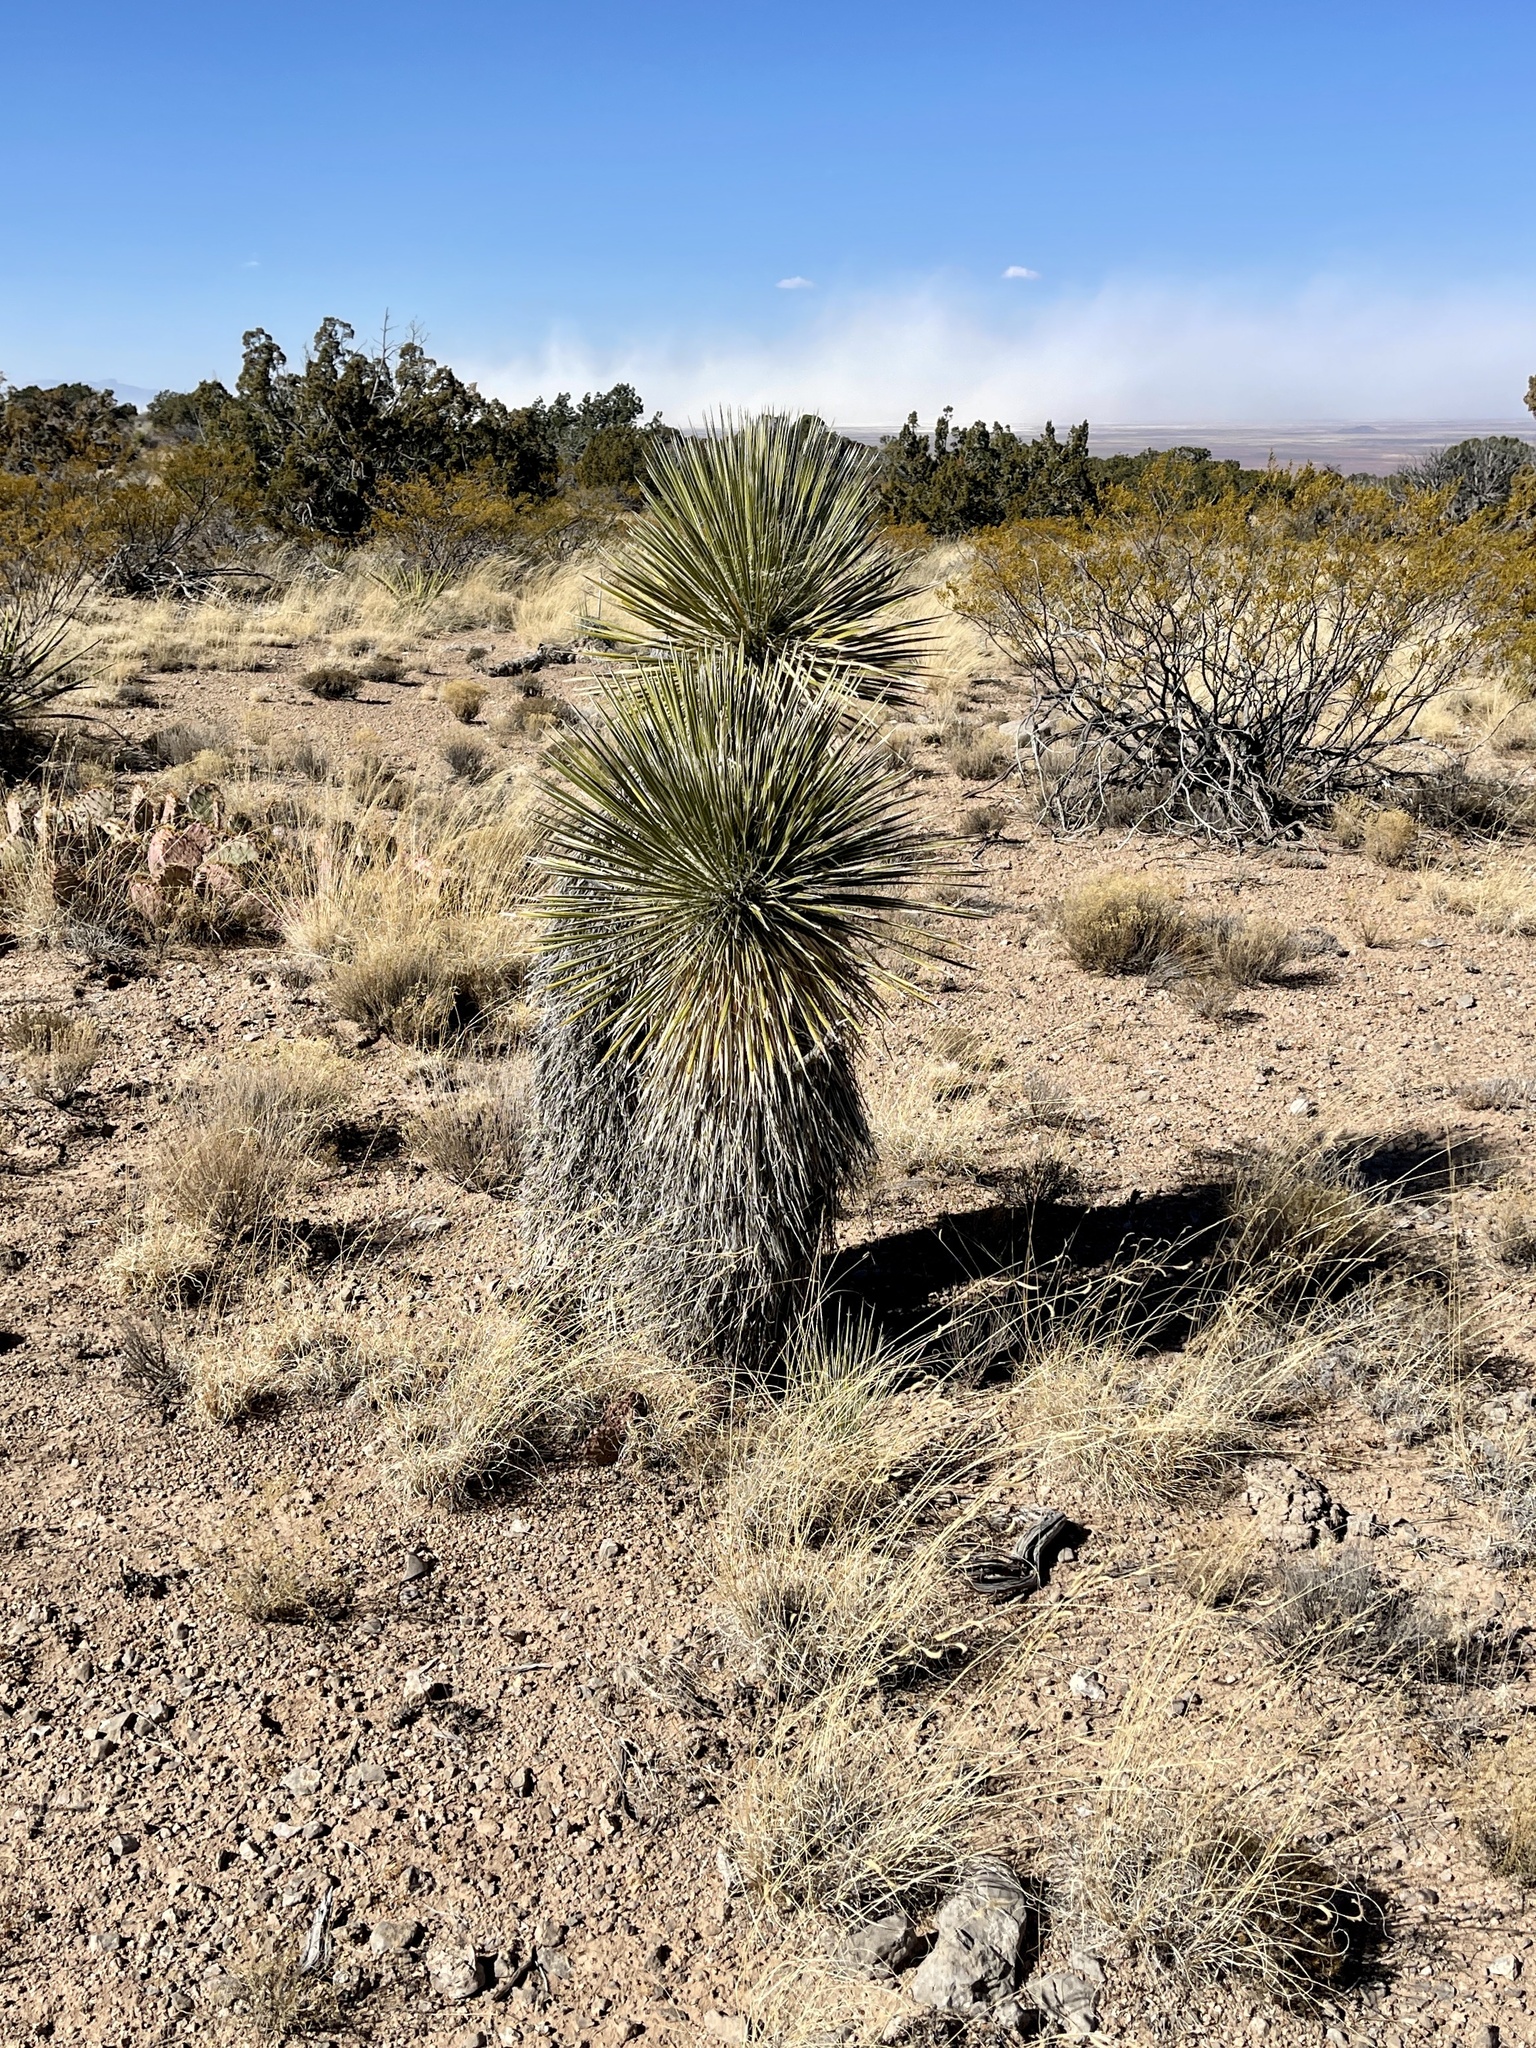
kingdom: Plantae
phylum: Tracheophyta
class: Liliopsida
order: Asparagales
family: Asparagaceae
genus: Yucca
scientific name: Yucca elata
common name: Palmella
